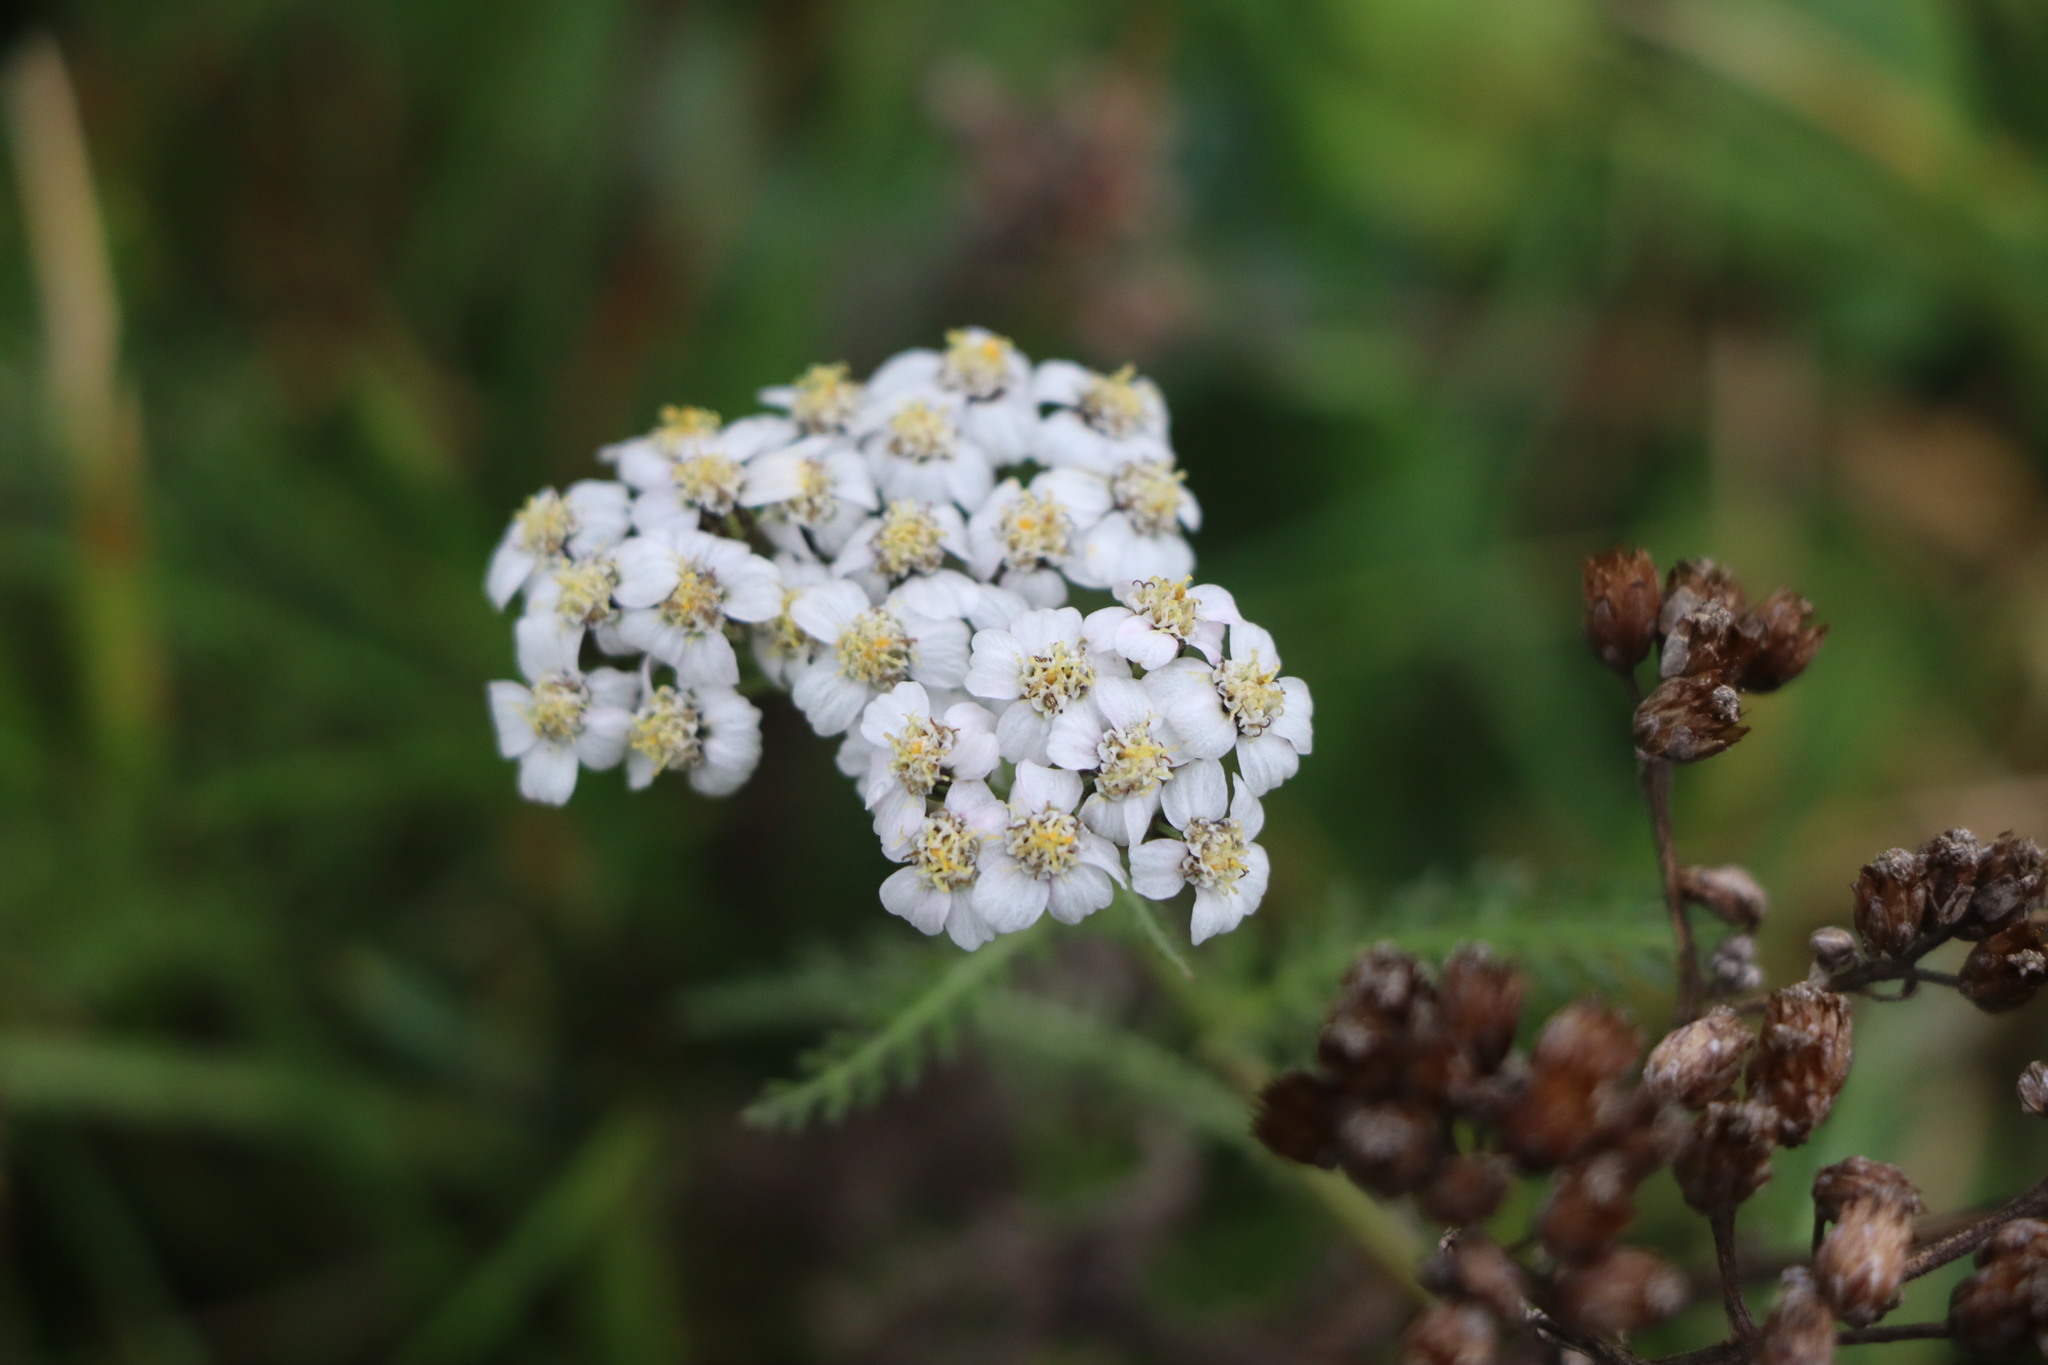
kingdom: Plantae
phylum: Tracheophyta
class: Magnoliopsida
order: Asterales
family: Asteraceae
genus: Achillea
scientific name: Achillea millefolium
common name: Yarrow
